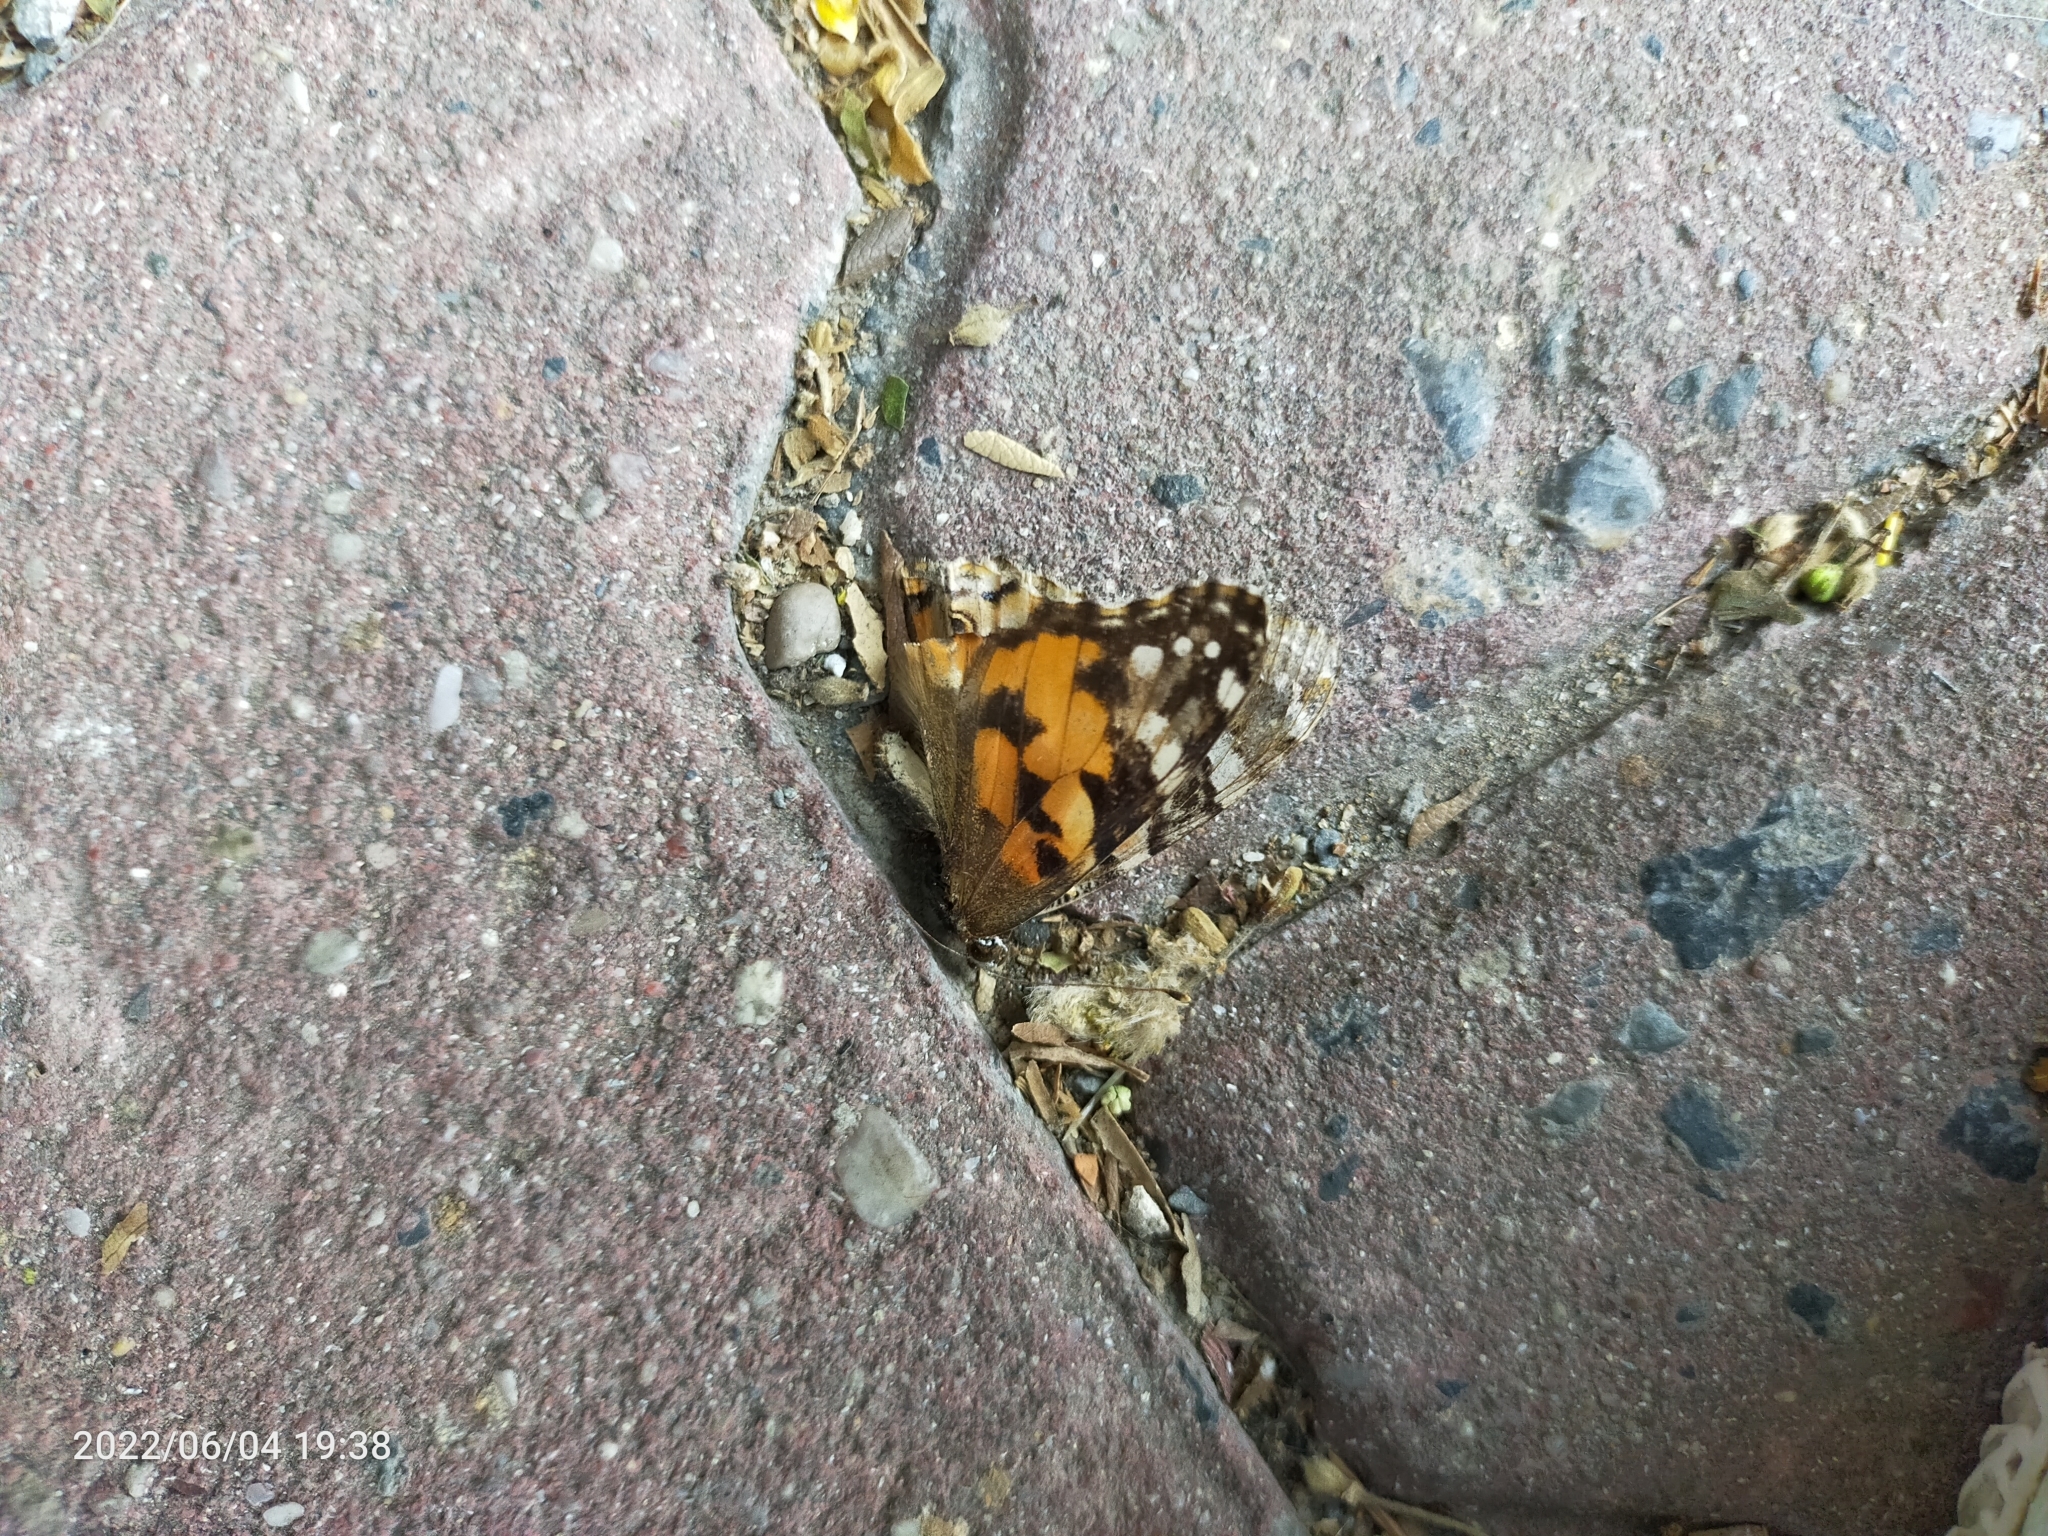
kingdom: Animalia
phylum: Arthropoda
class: Insecta
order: Lepidoptera
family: Nymphalidae
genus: Vanessa
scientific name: Vanessa cardui
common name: Painted lady
